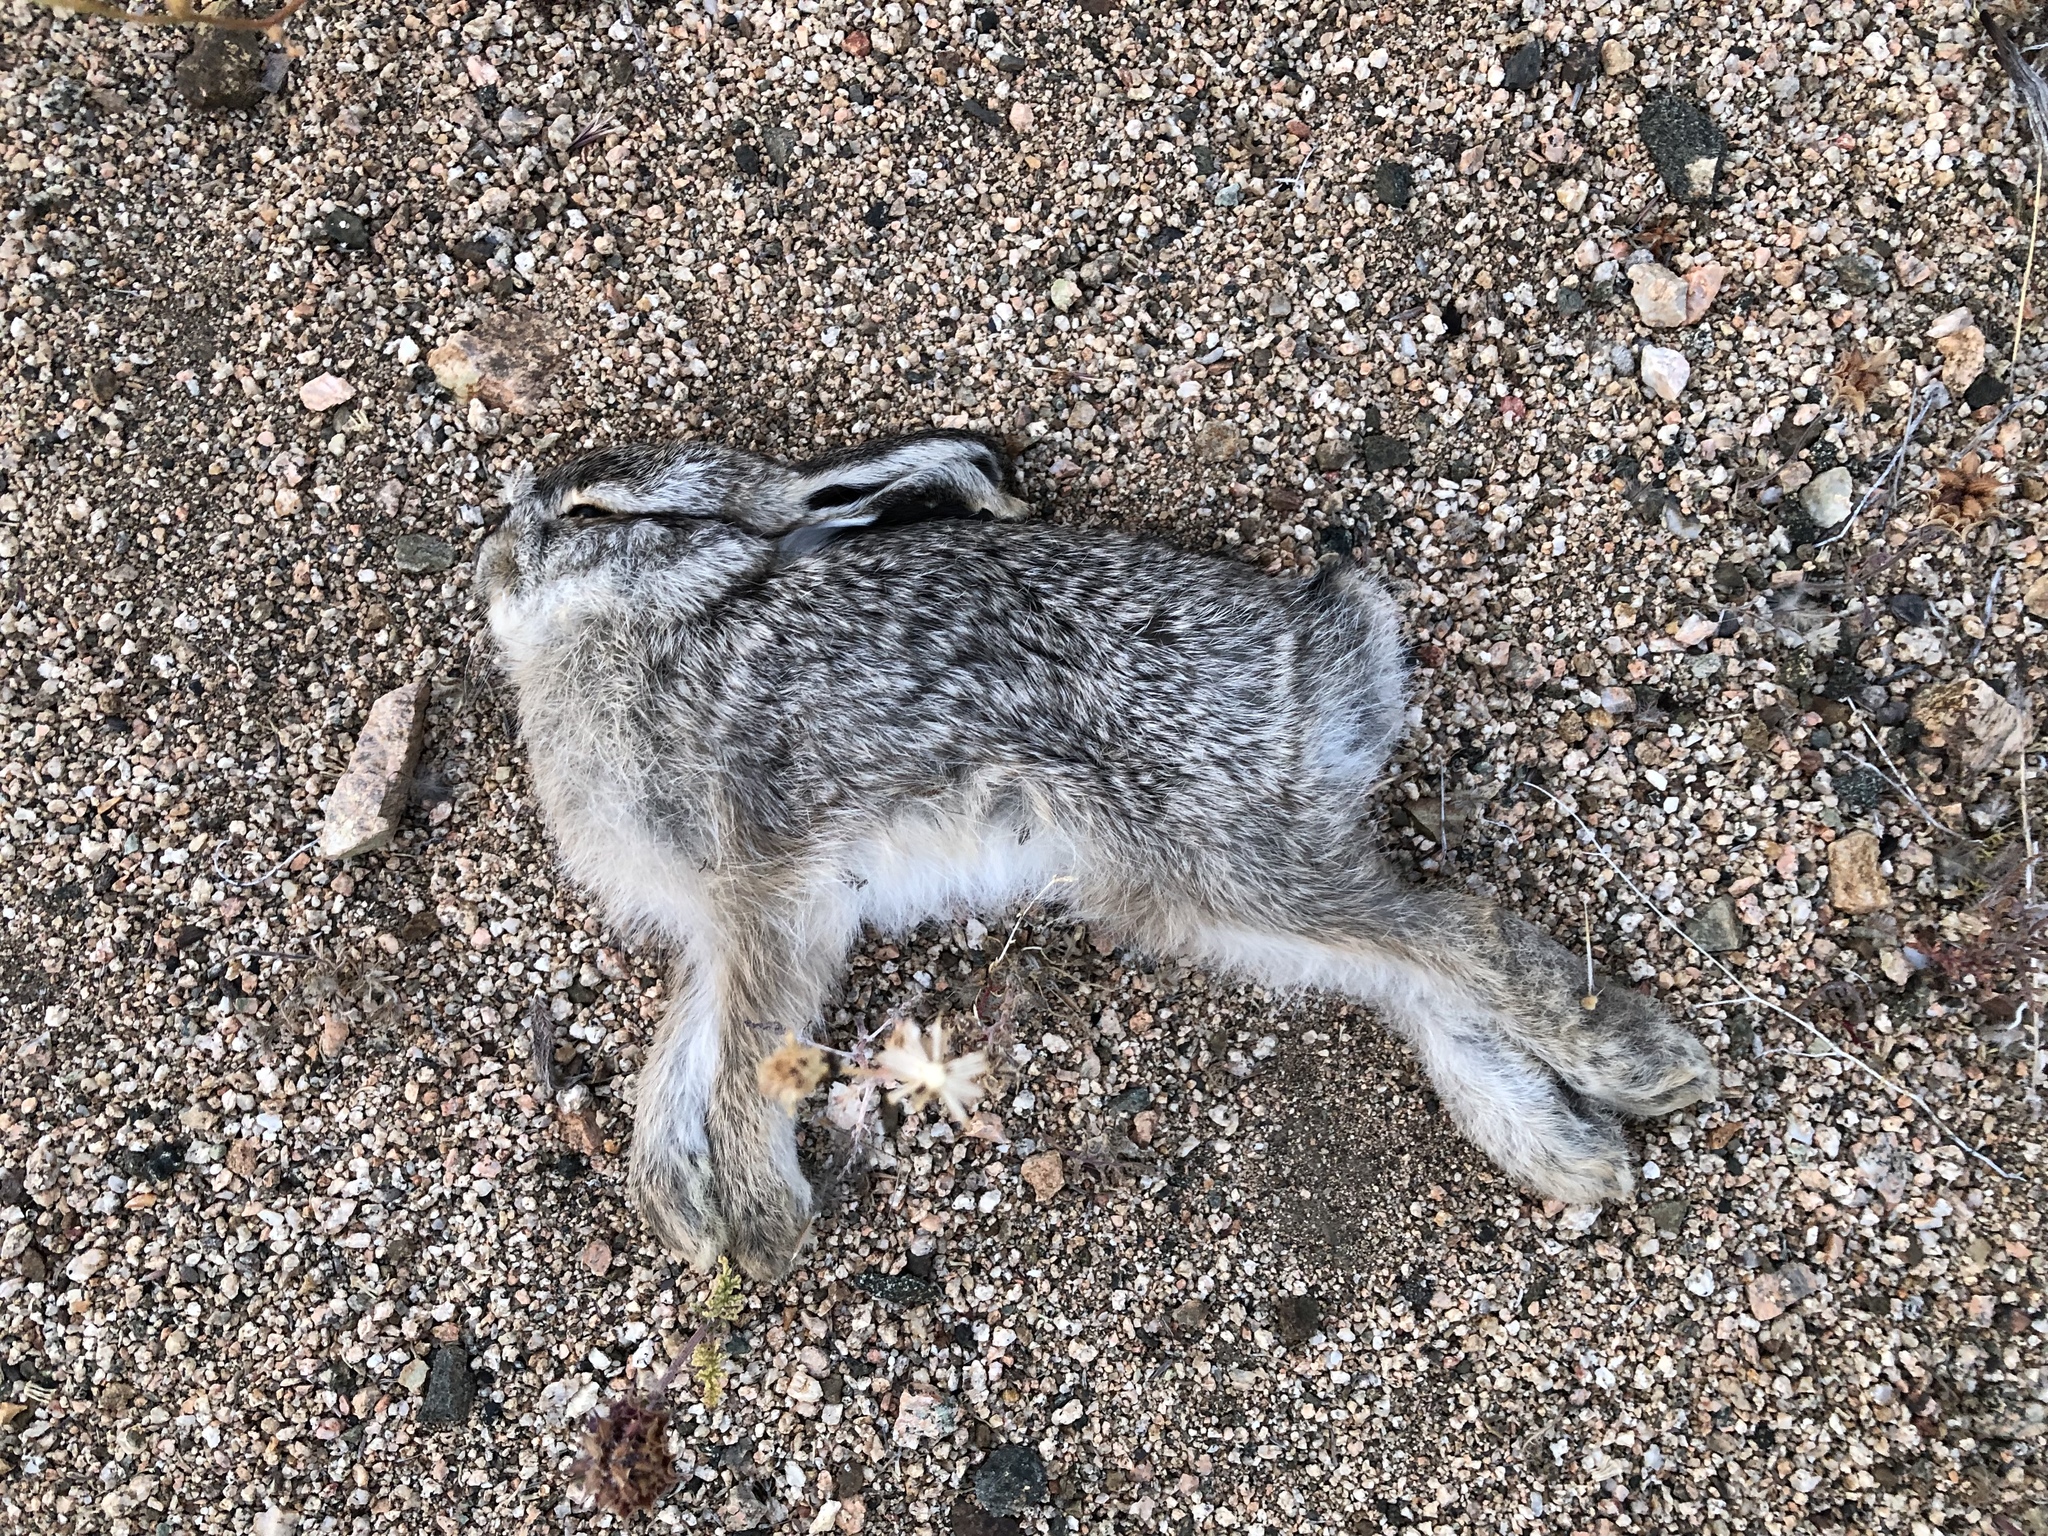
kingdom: Animalia
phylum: Chordata
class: Mammalia
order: Lagomorpha
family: Leporidae
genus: Lepus
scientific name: Lepus californicus
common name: Black-tailed jackrabbit
